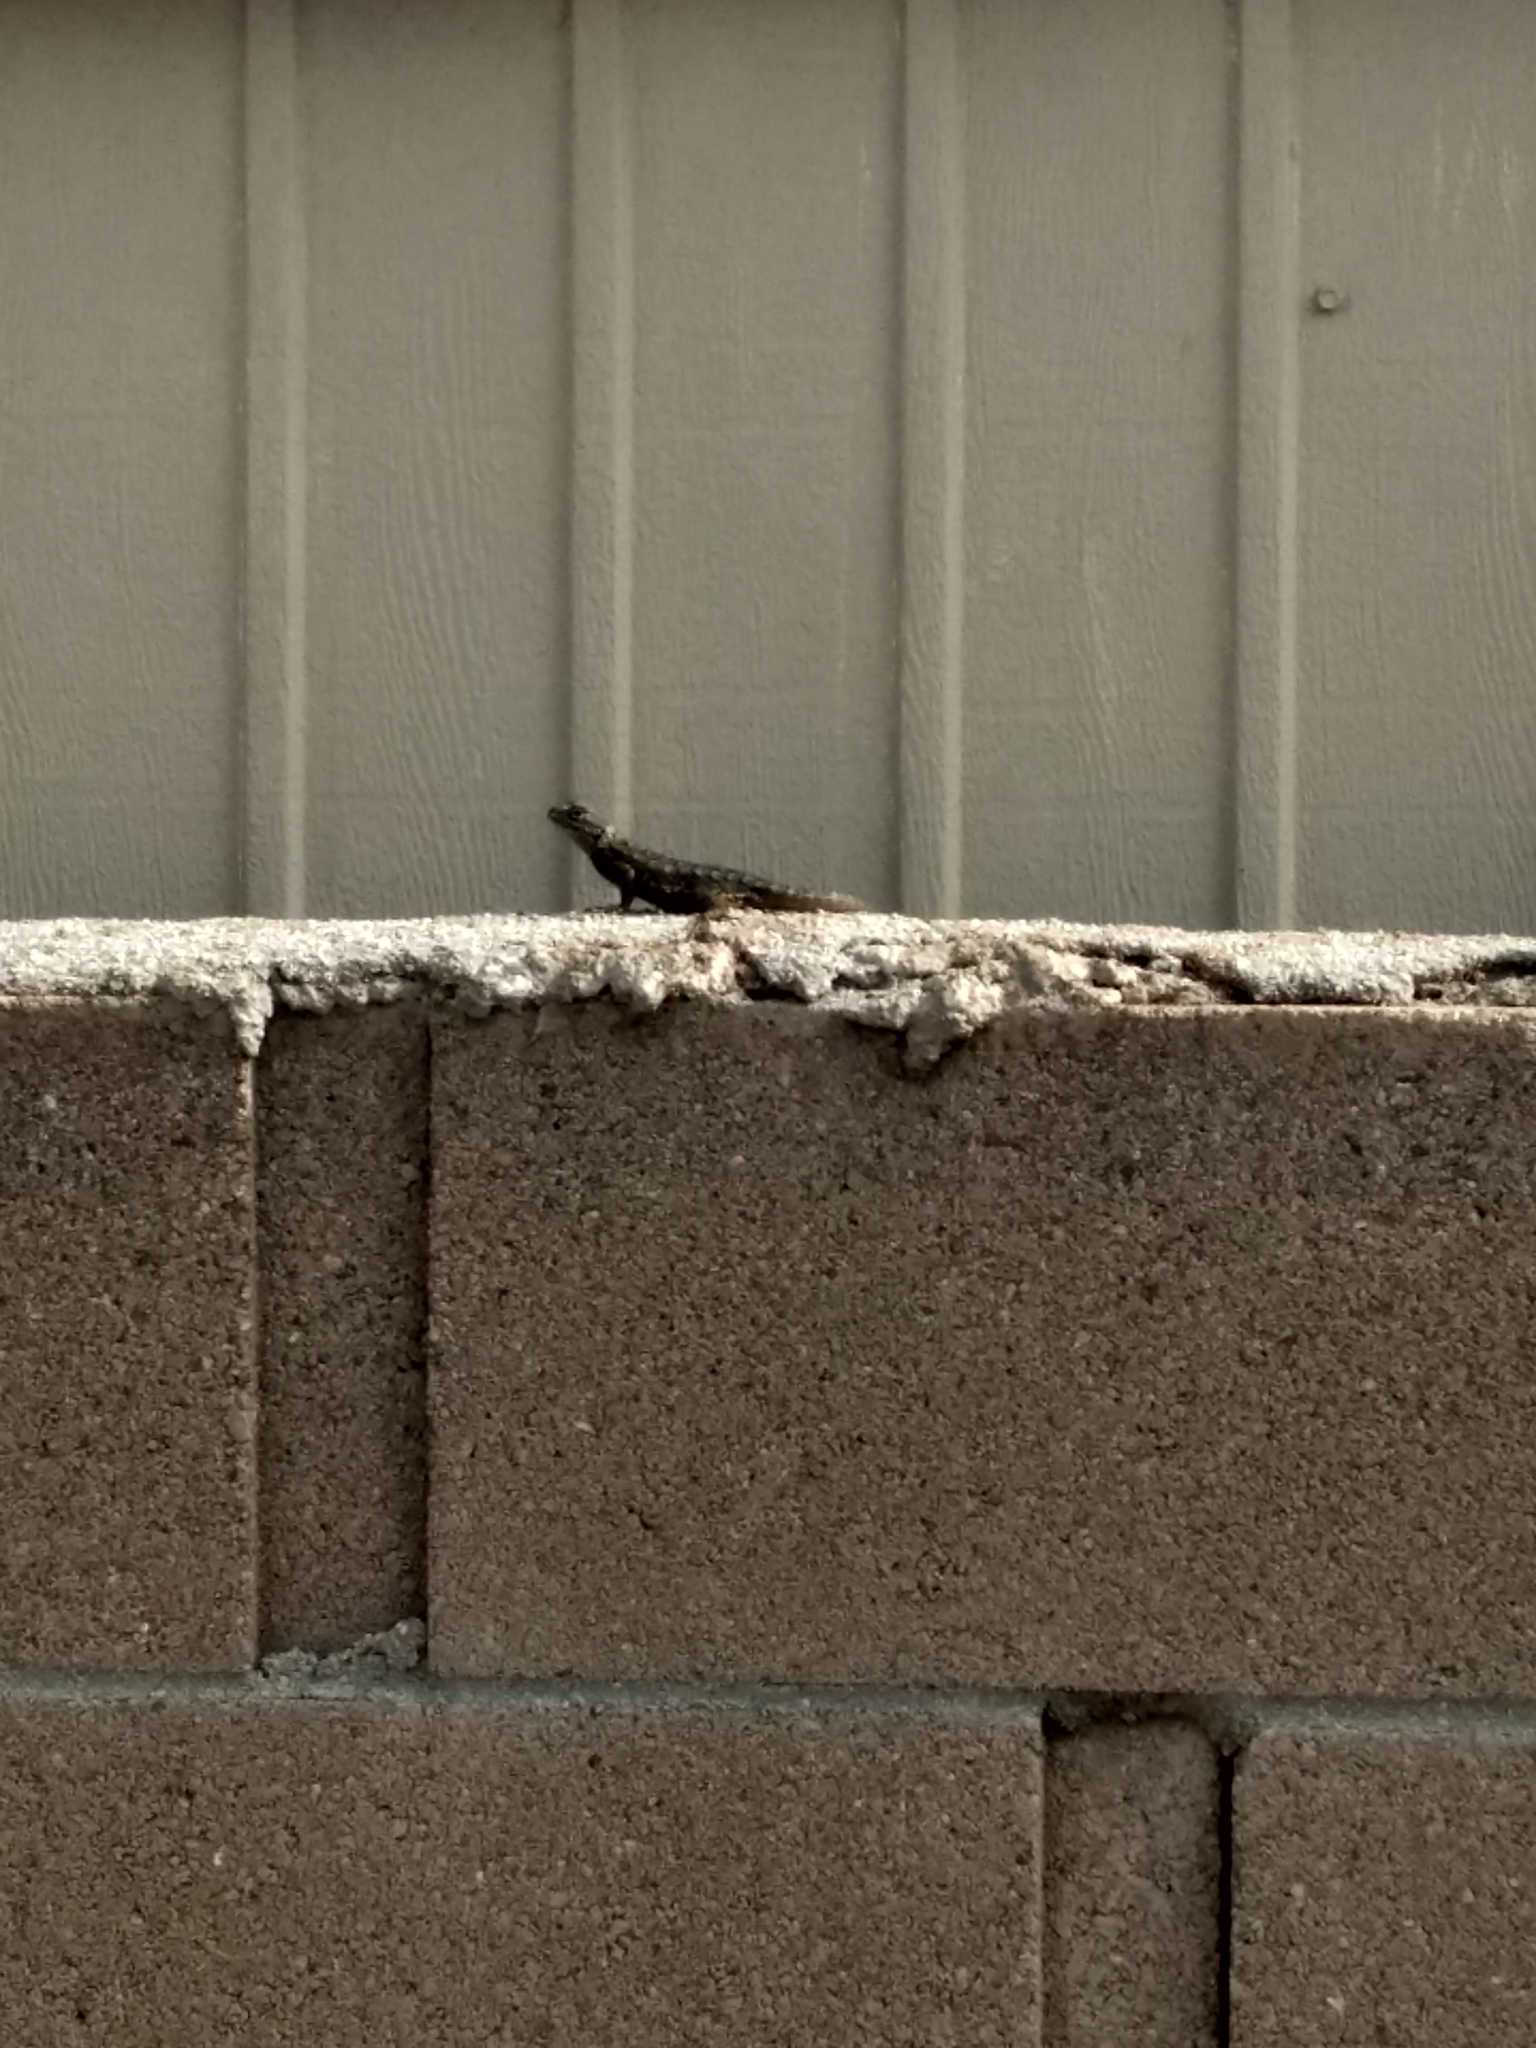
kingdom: Animalia
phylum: Chordata
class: Squamata
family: Phrynosomatidae
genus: Sceloporus
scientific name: Sceloporus occidentalis
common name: Western fence lizard
